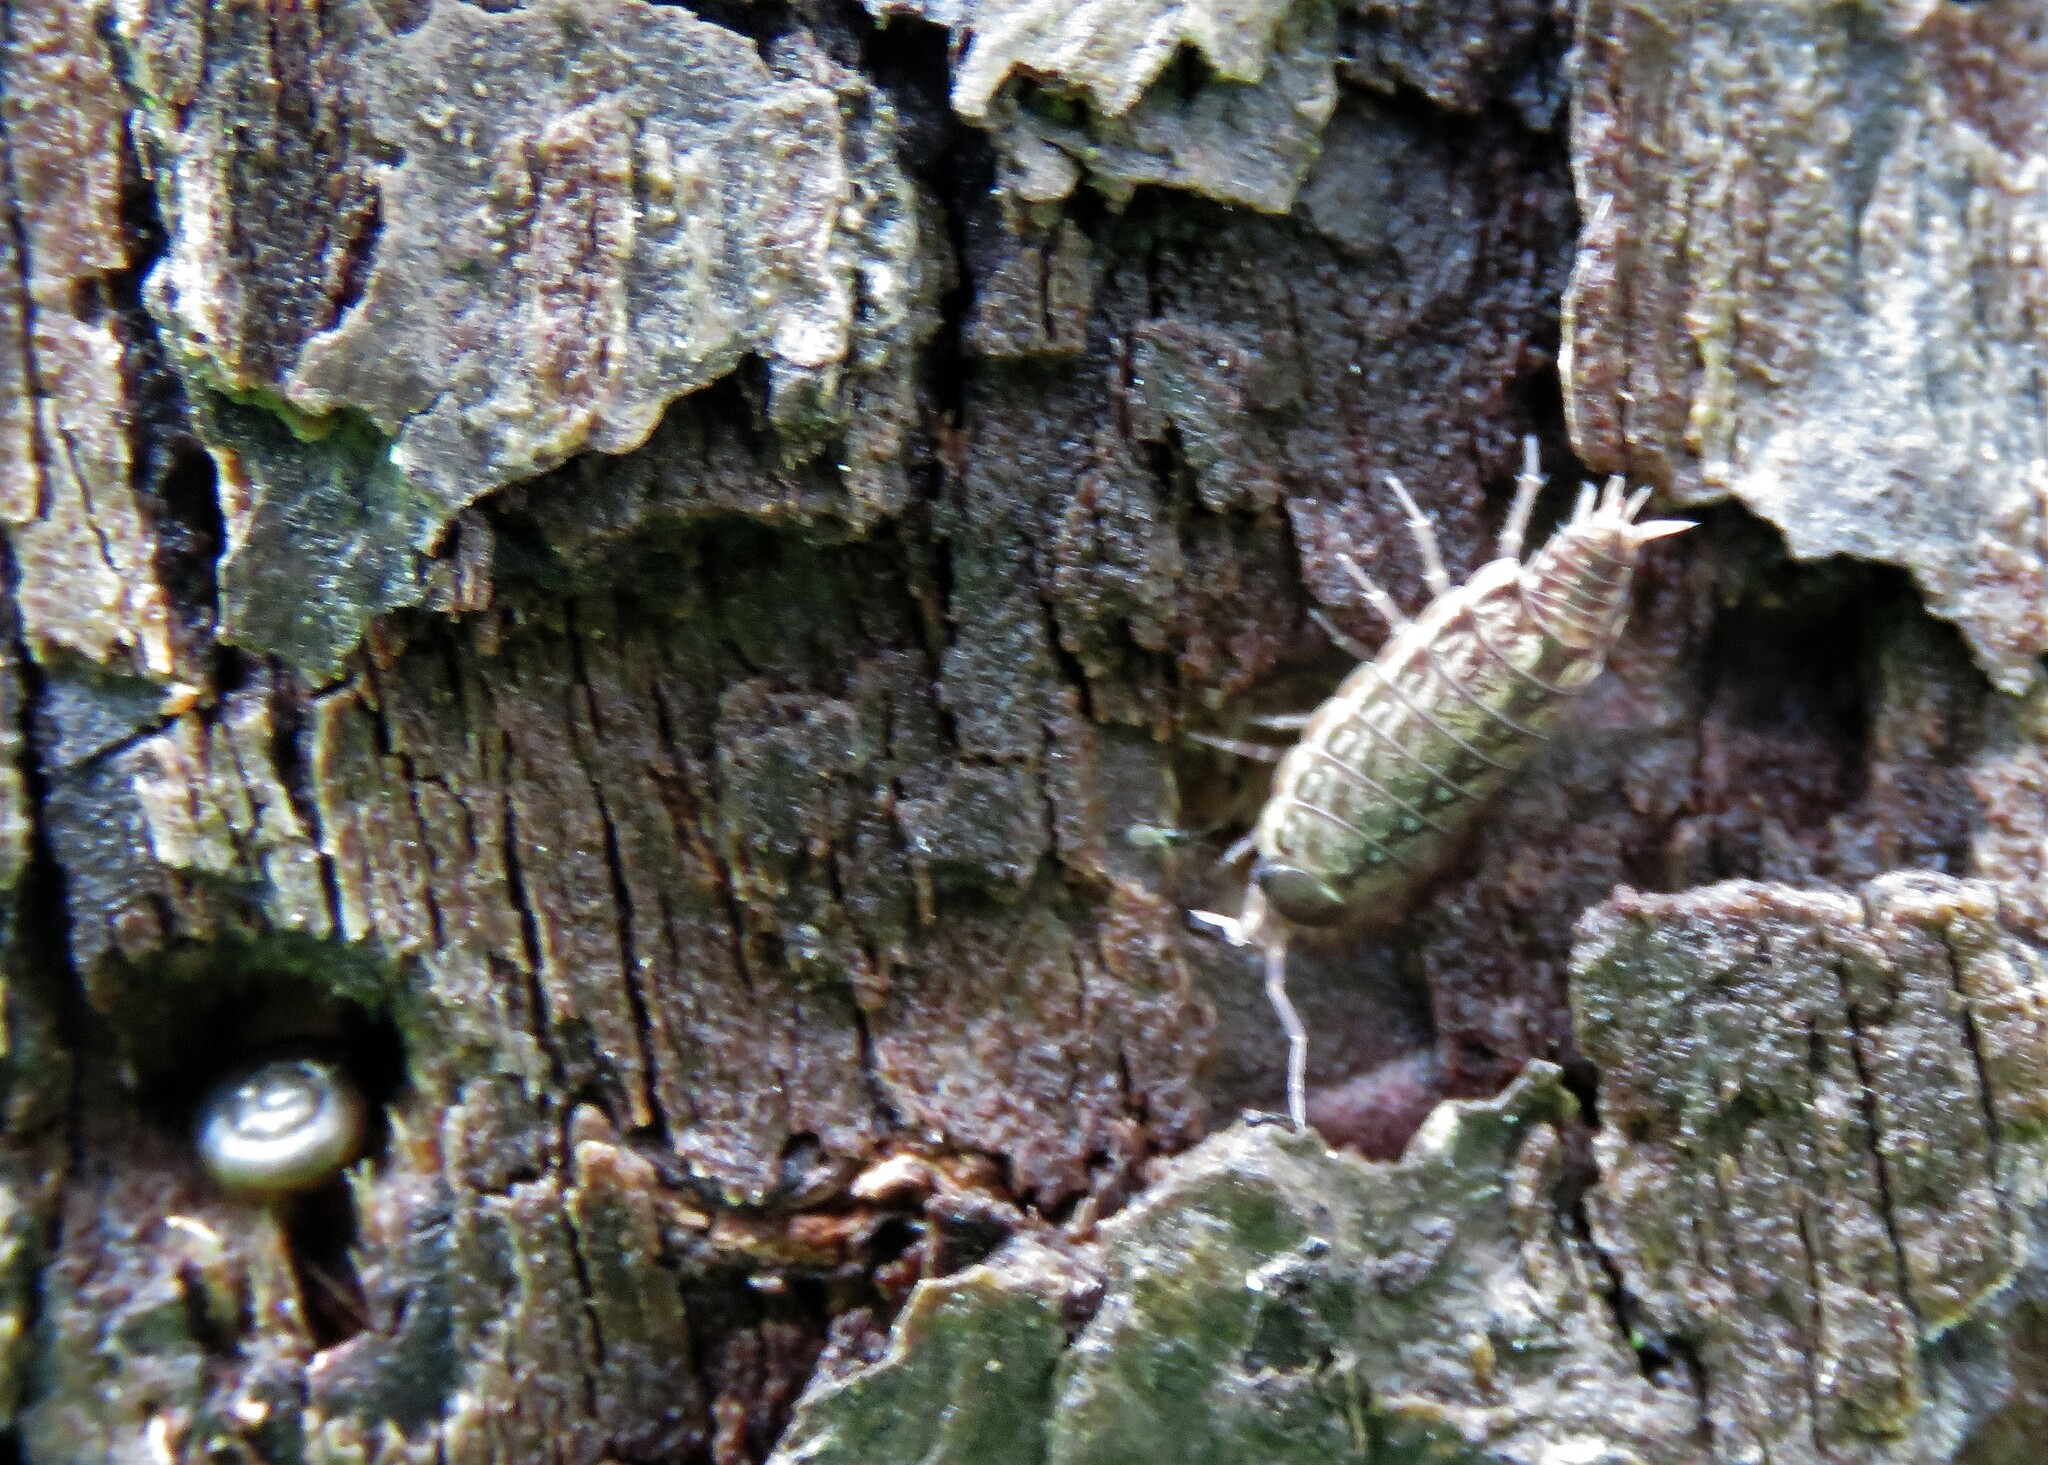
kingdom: Animalia
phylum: Arthropoda
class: Malacostraca
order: Isopoda
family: Philosciidae
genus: Philoscia
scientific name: Philoscia muscorum
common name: Common striped woodlouse
